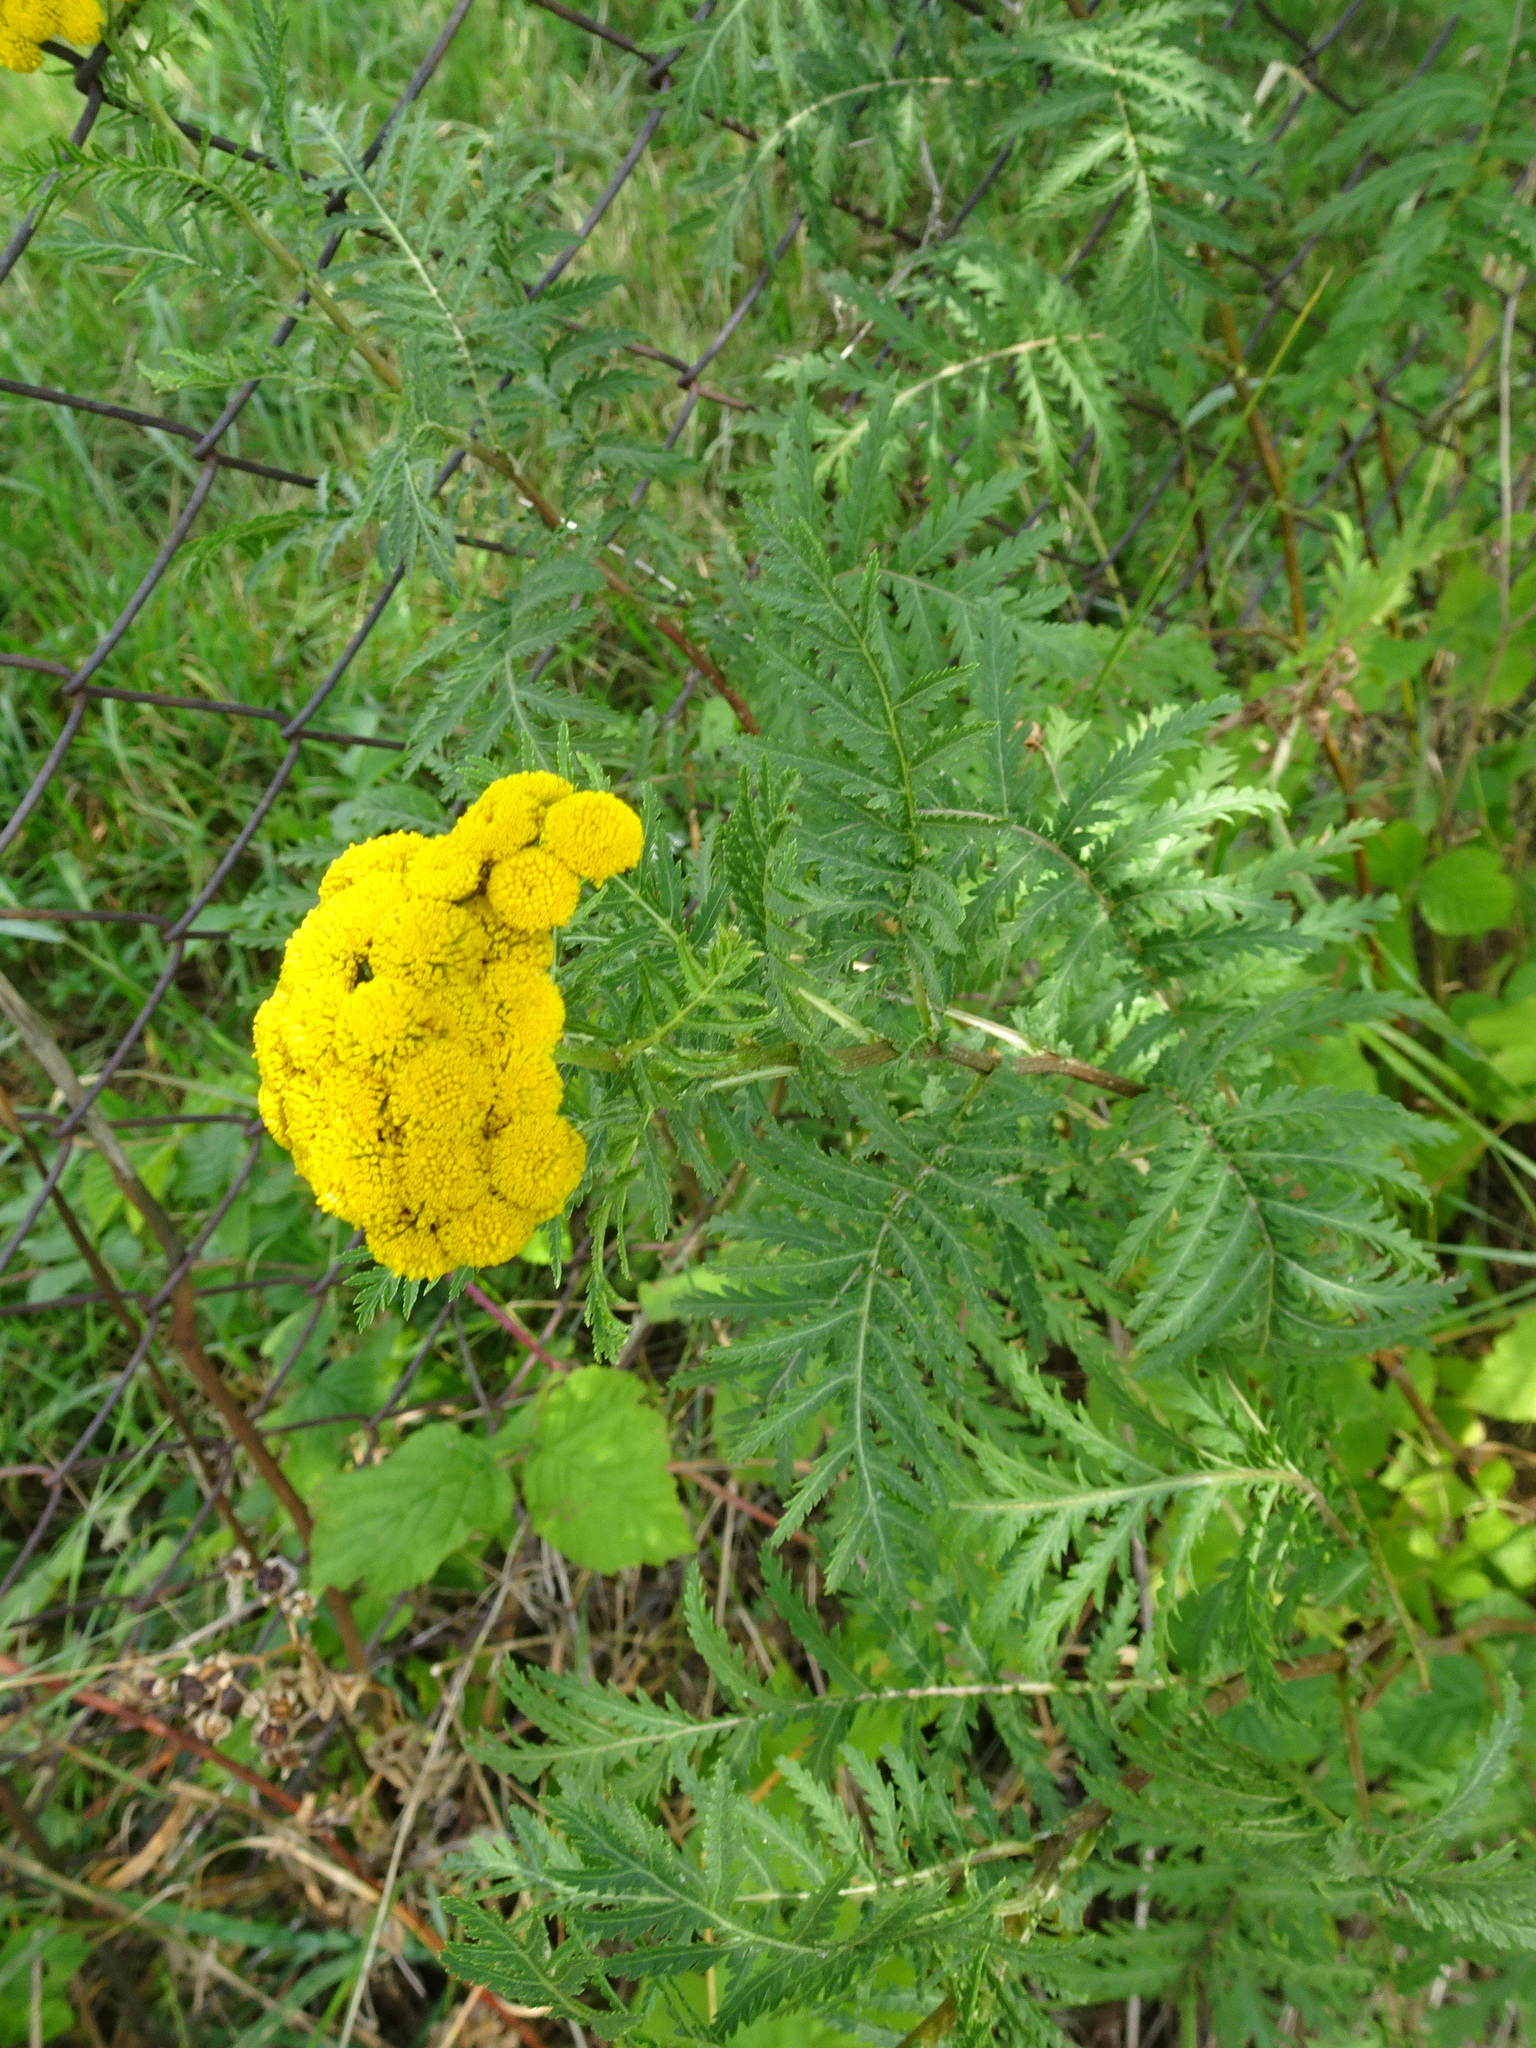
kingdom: Plantae
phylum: Tracheophyta
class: Magnoliopsida
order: Asterales
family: Asteraceae
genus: Tanacetum
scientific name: Tanacetum vulgare
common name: Common tansy
